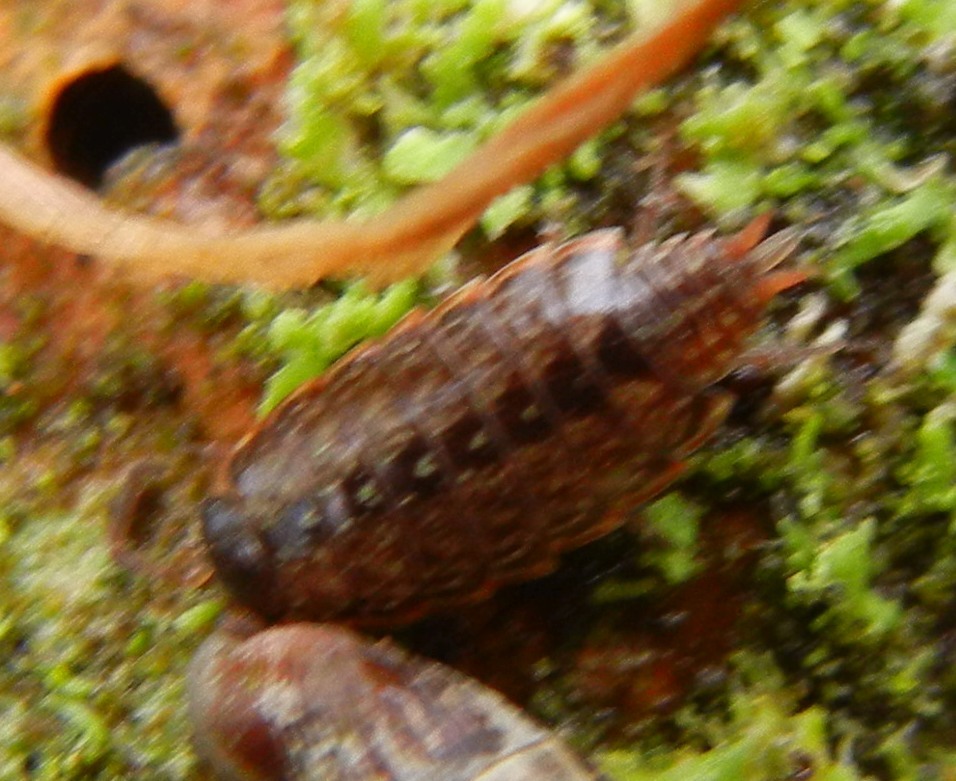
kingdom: Animalia
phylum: Arthropoda
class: Malacostraca
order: Isopoda
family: Philosciidae
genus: Philoscia
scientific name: Philoscia muscorum
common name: Common striped woodlouse
